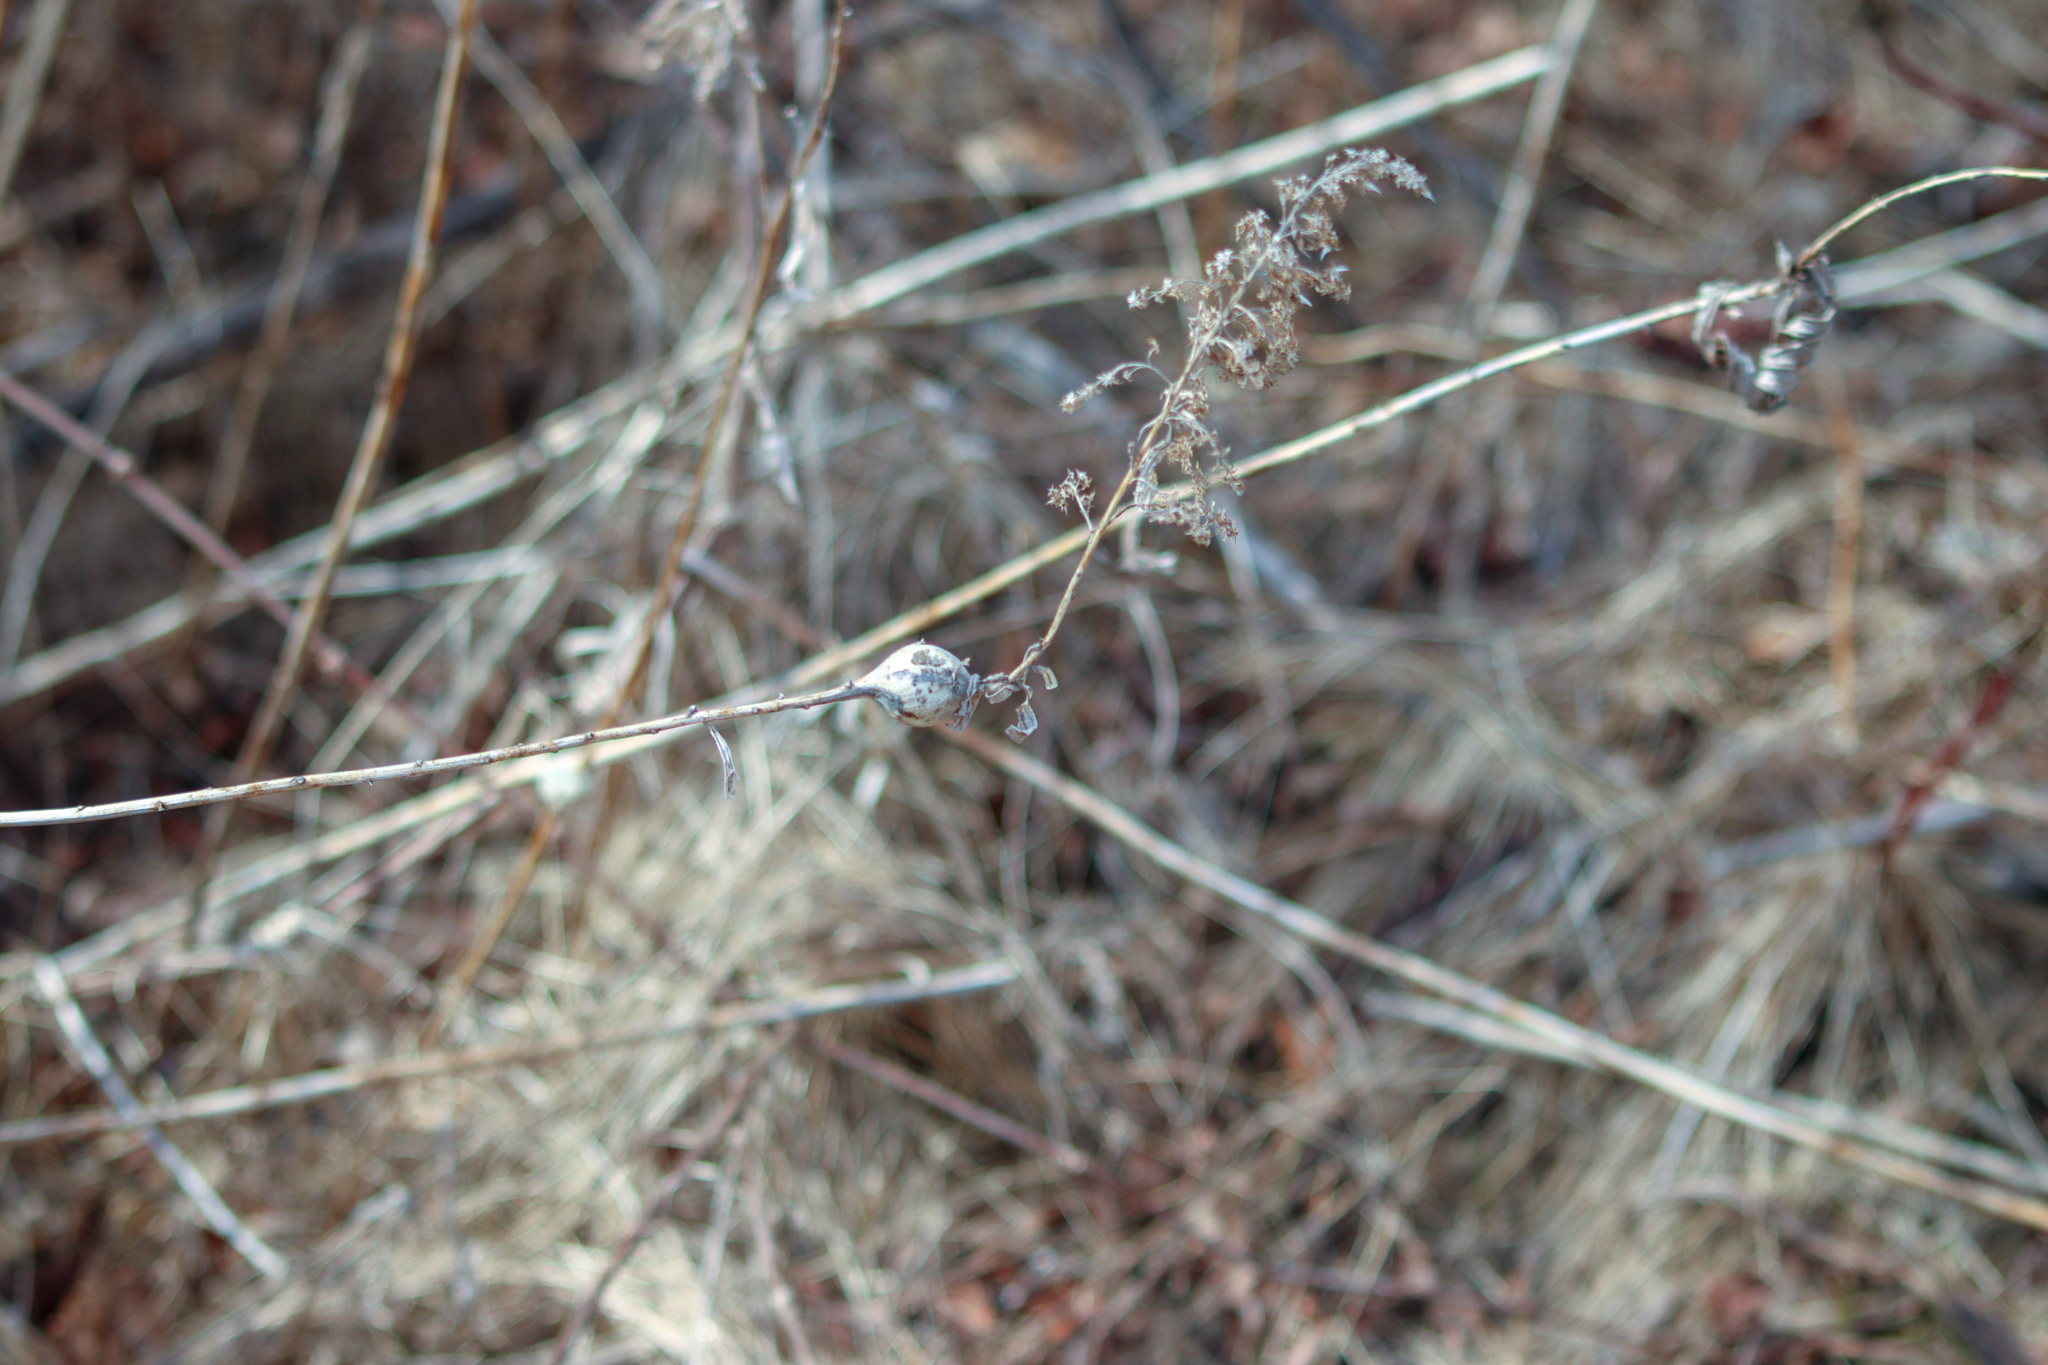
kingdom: Animalia
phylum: Arthropoda
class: Insecta
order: Diptera
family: Tephritidae
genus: Eurosta
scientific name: Eurosta solidaginis
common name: Goldenrod gall fly
